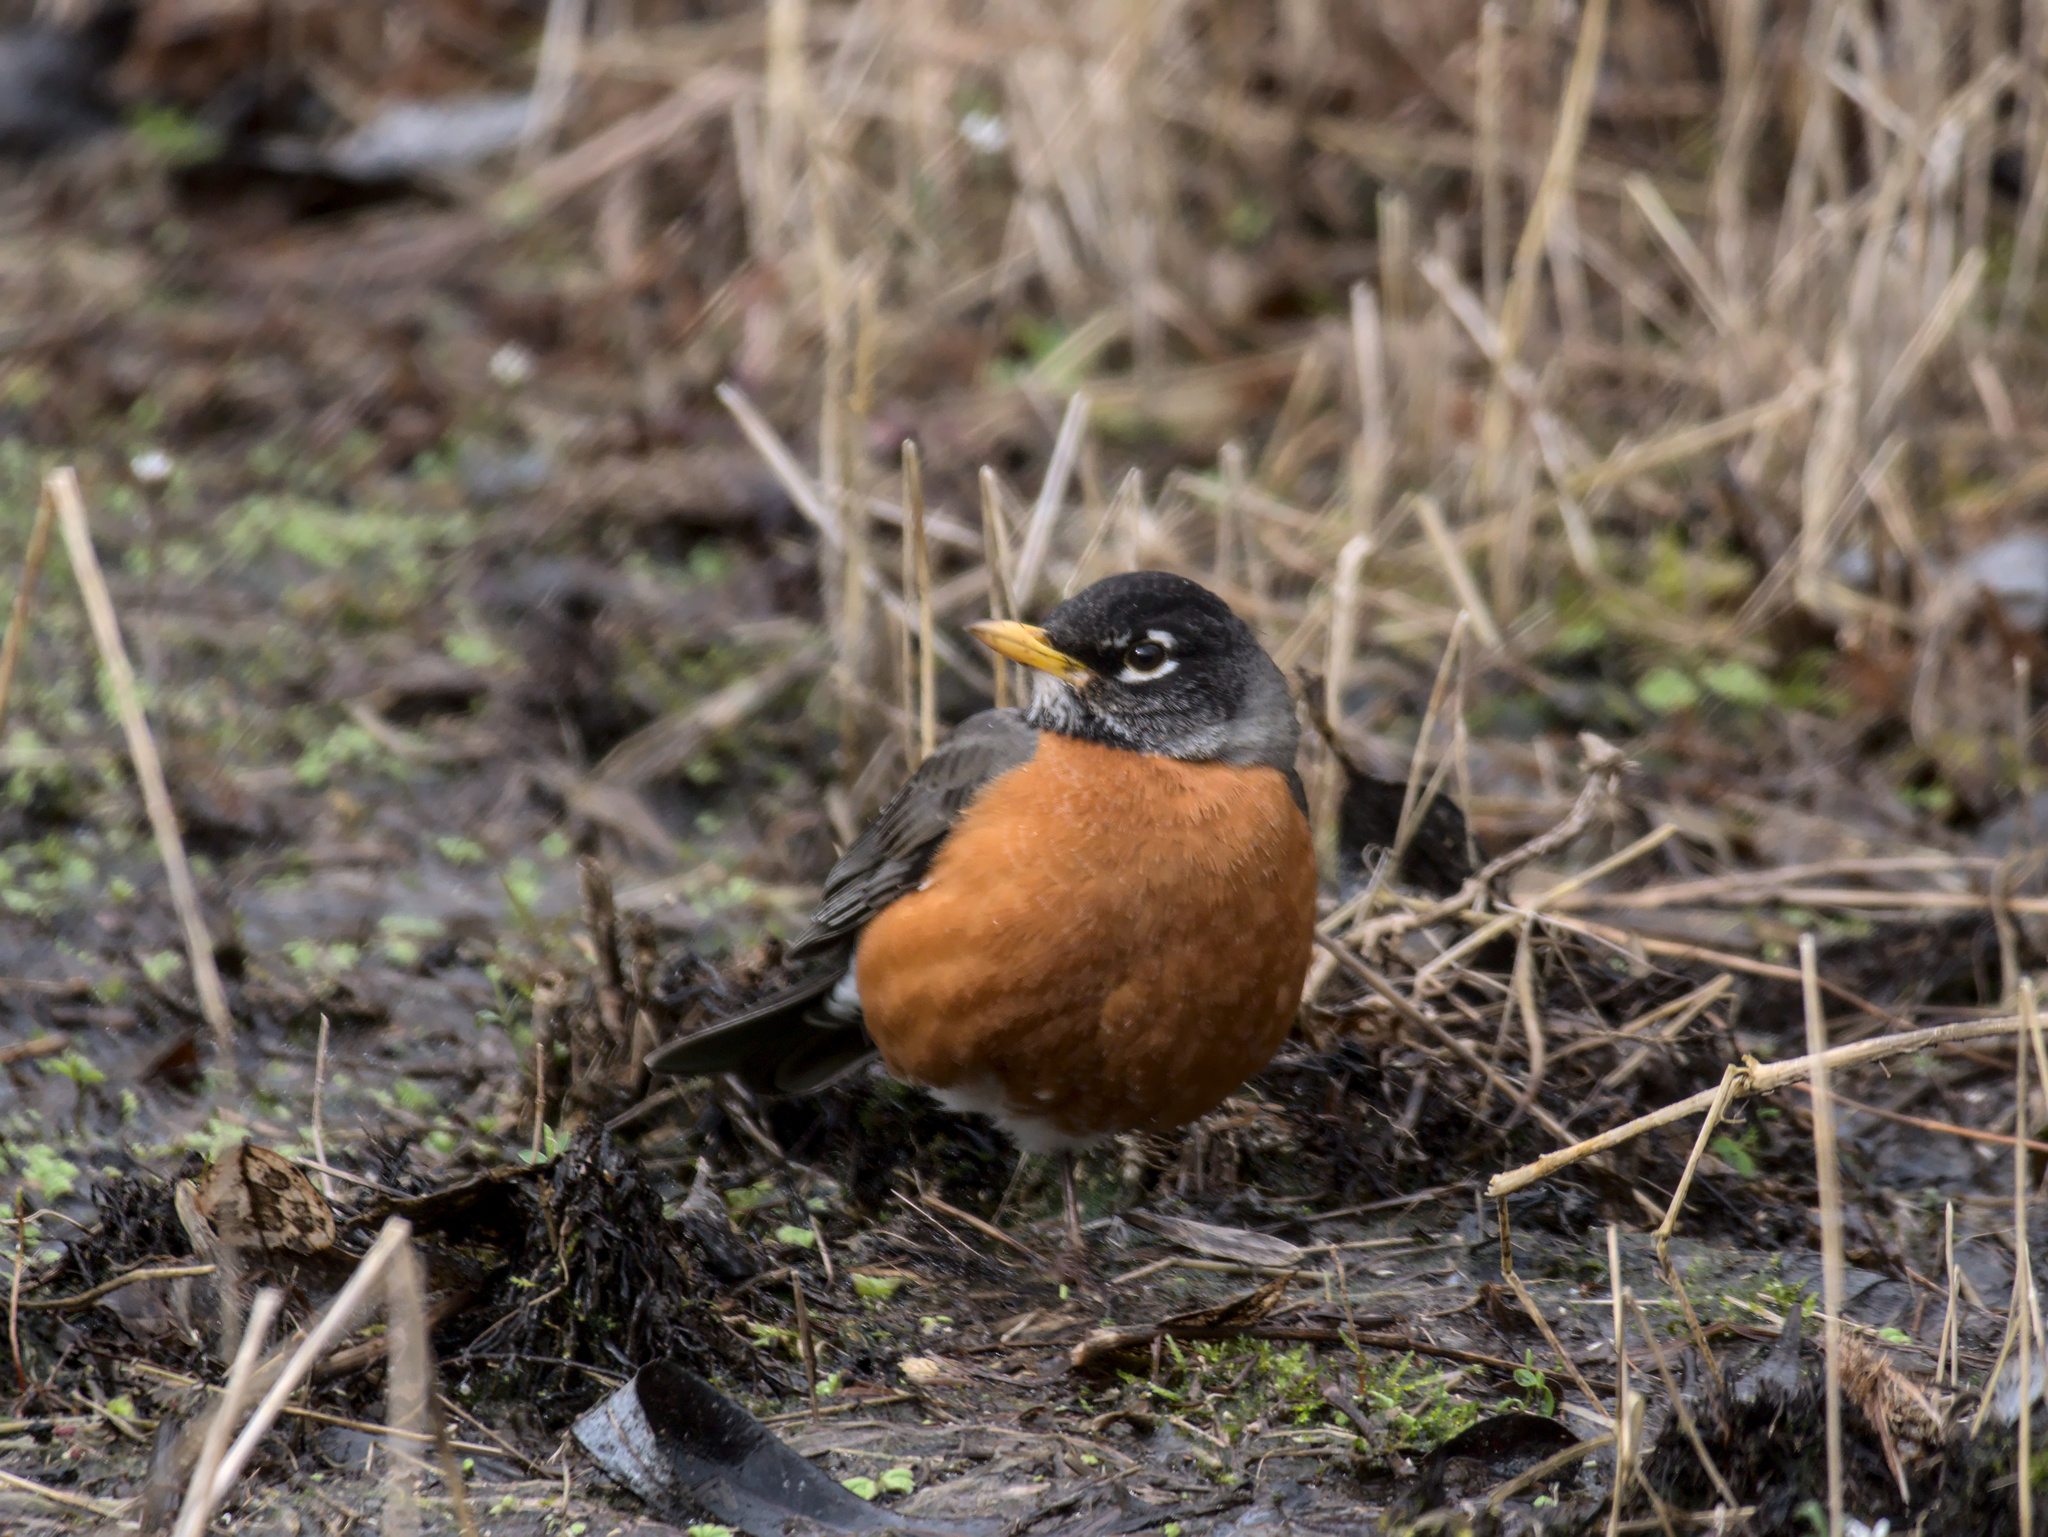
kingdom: Animalia
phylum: Chordata
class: Aves
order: Passeriformes
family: Turdidae
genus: Turdus
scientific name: Turdus migratorius
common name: American robin
